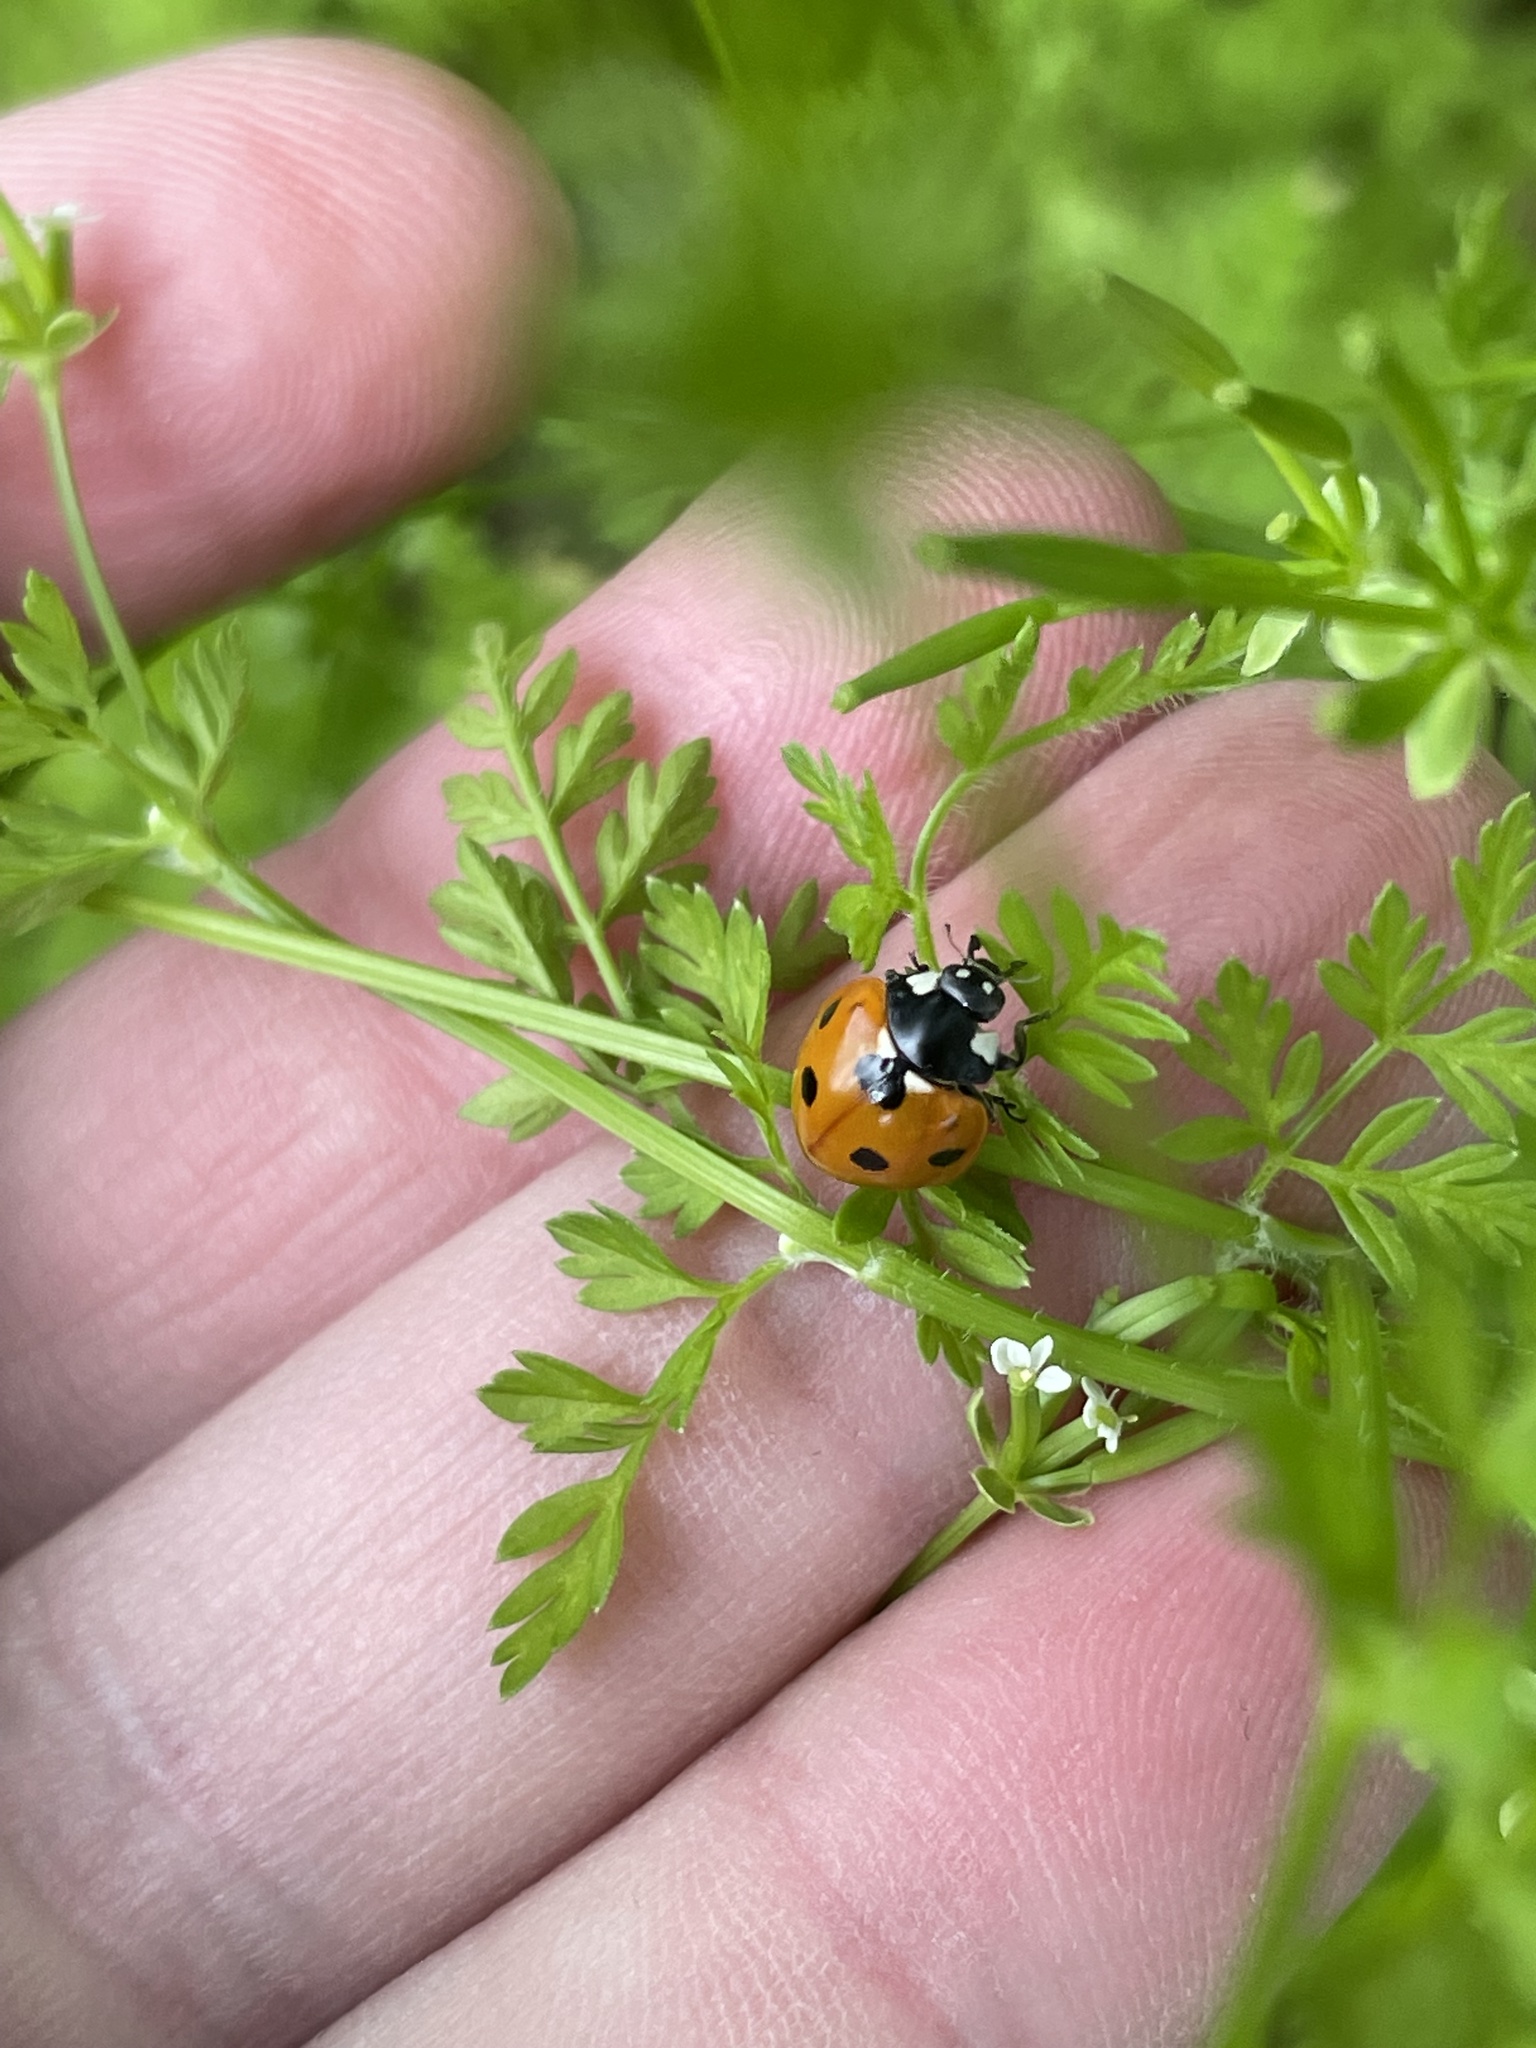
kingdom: Animalia
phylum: Arthropoda
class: Insecta
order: Coleoptera
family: Coccinellidae
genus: Coccinella
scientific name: Coccinella septempunctata
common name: Sevenspotted lady beetle
